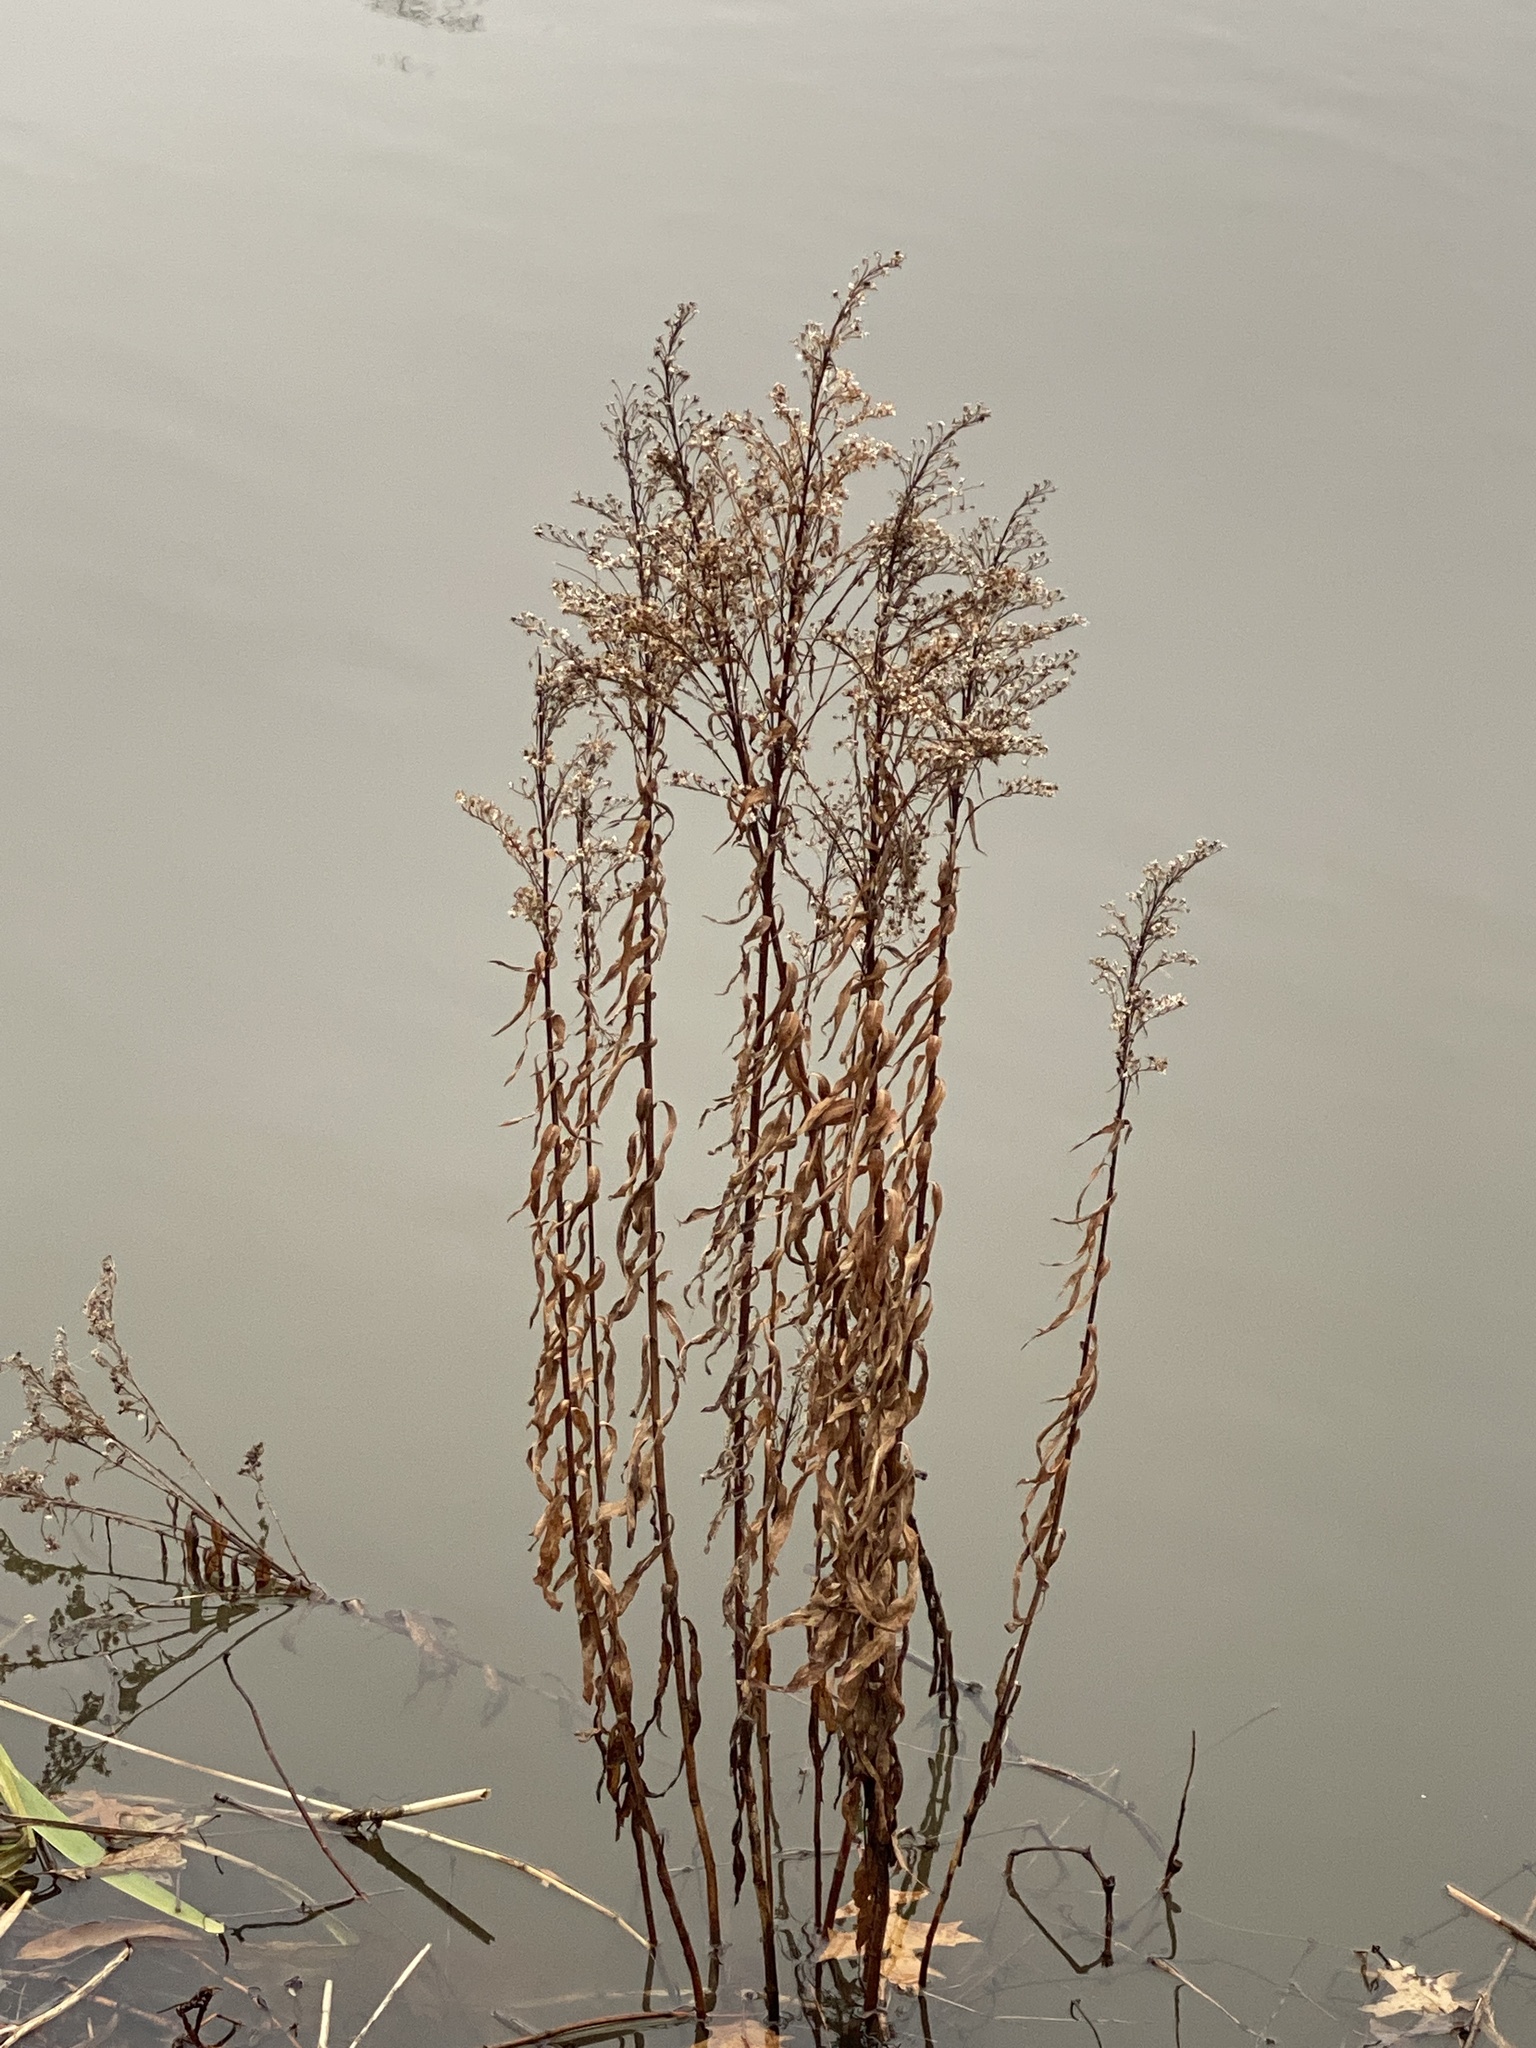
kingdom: Plantae
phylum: Tracheophyta
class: Magnoliopsida
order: Asterales
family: Asteraceae
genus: Solidago
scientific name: Solidago sempervirens
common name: Salt-marsh goldenrod
